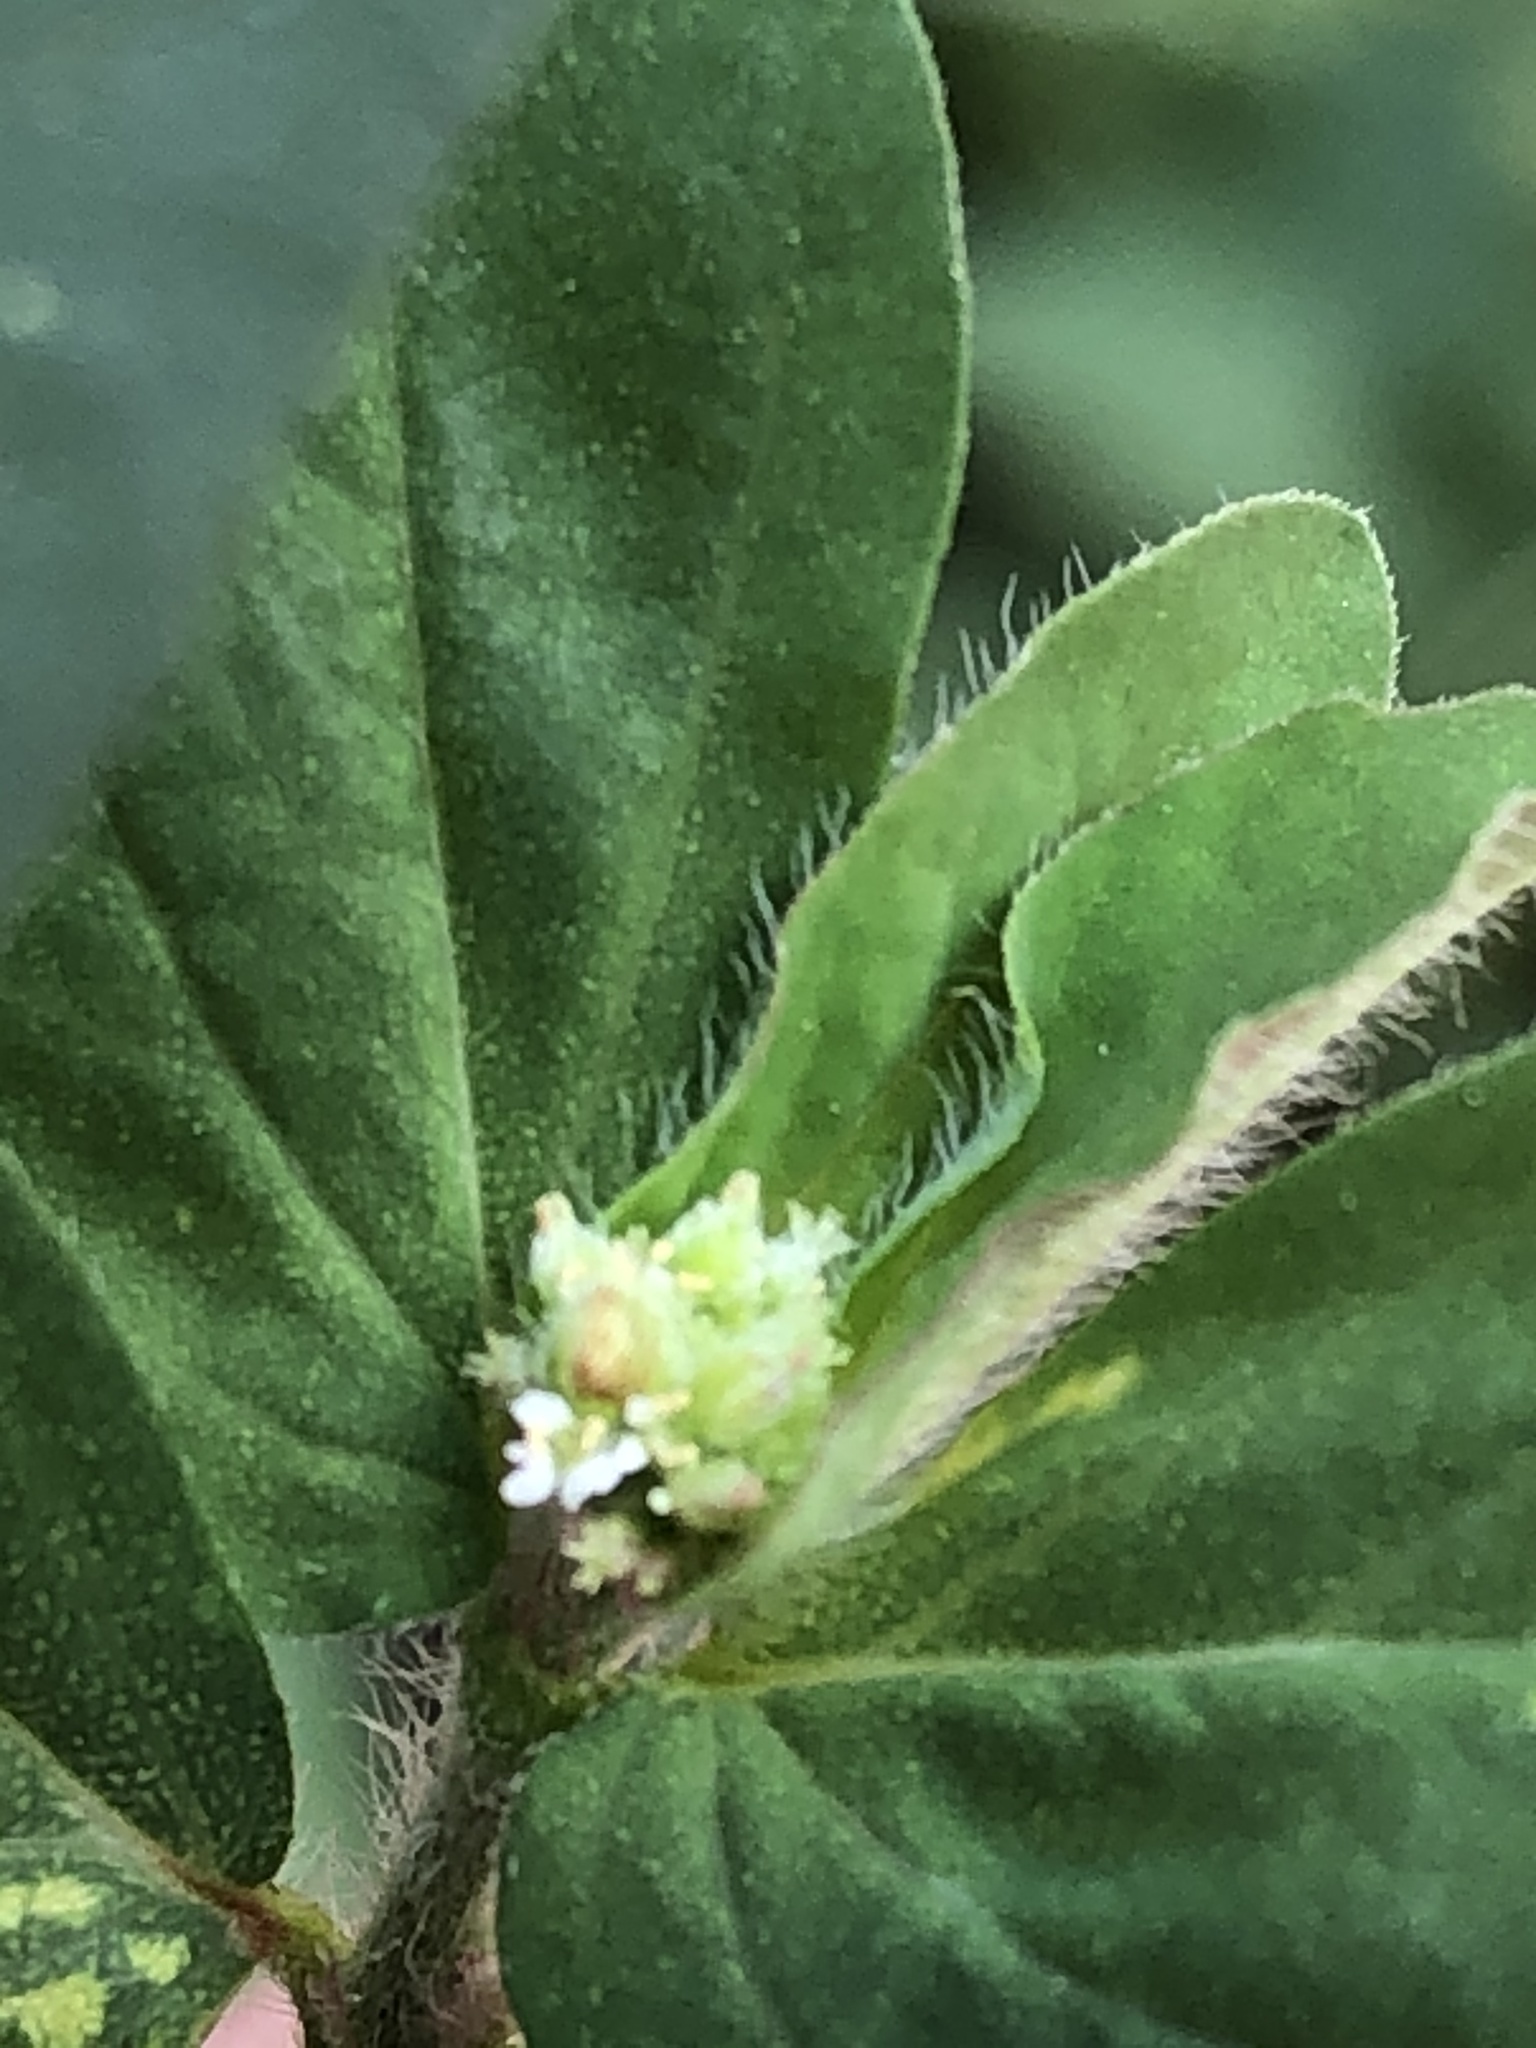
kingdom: Plantae
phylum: Tracheophyta
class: Magnoliopsida
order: Malpighiales
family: Euphorbiaceae
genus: Euphorbia
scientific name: Euphorbia ophthalmica
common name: Florida hammock sandmat
